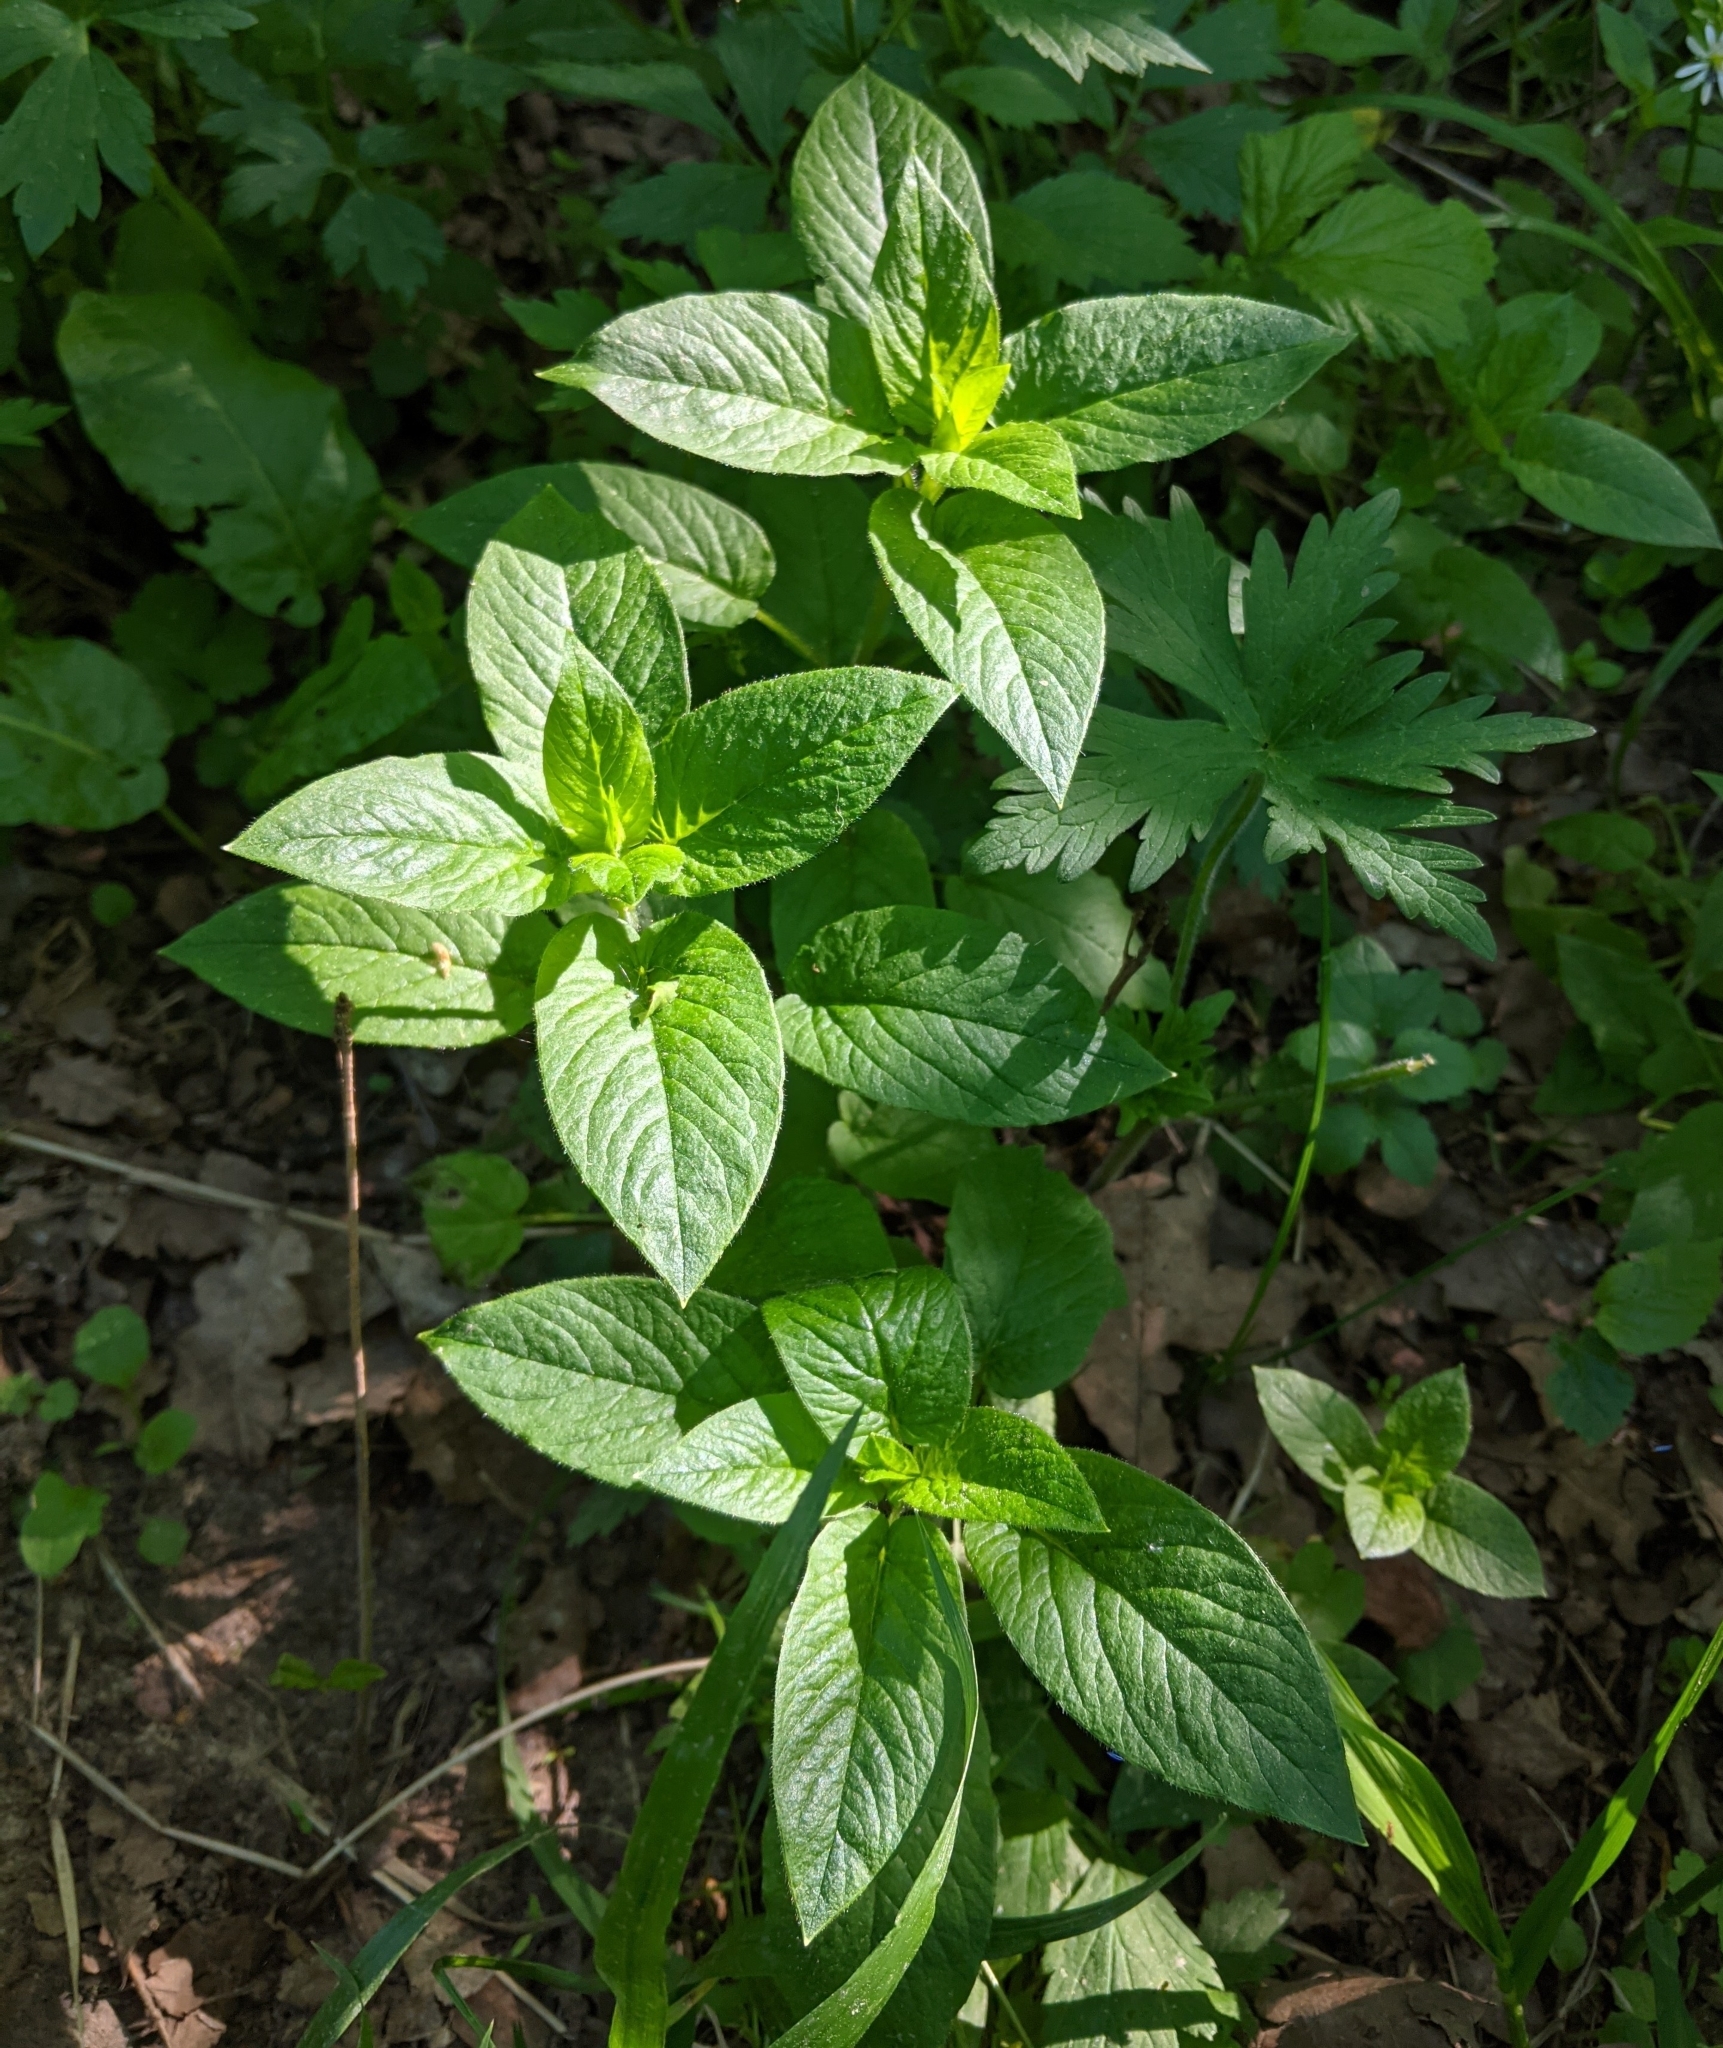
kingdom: Plantae
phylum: Tracheophyta
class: Magnoliopsida
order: Caryophyllales
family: Caryophyllaceae
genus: Stellaria
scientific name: Stellaria nemorum
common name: Wood stitchwort
